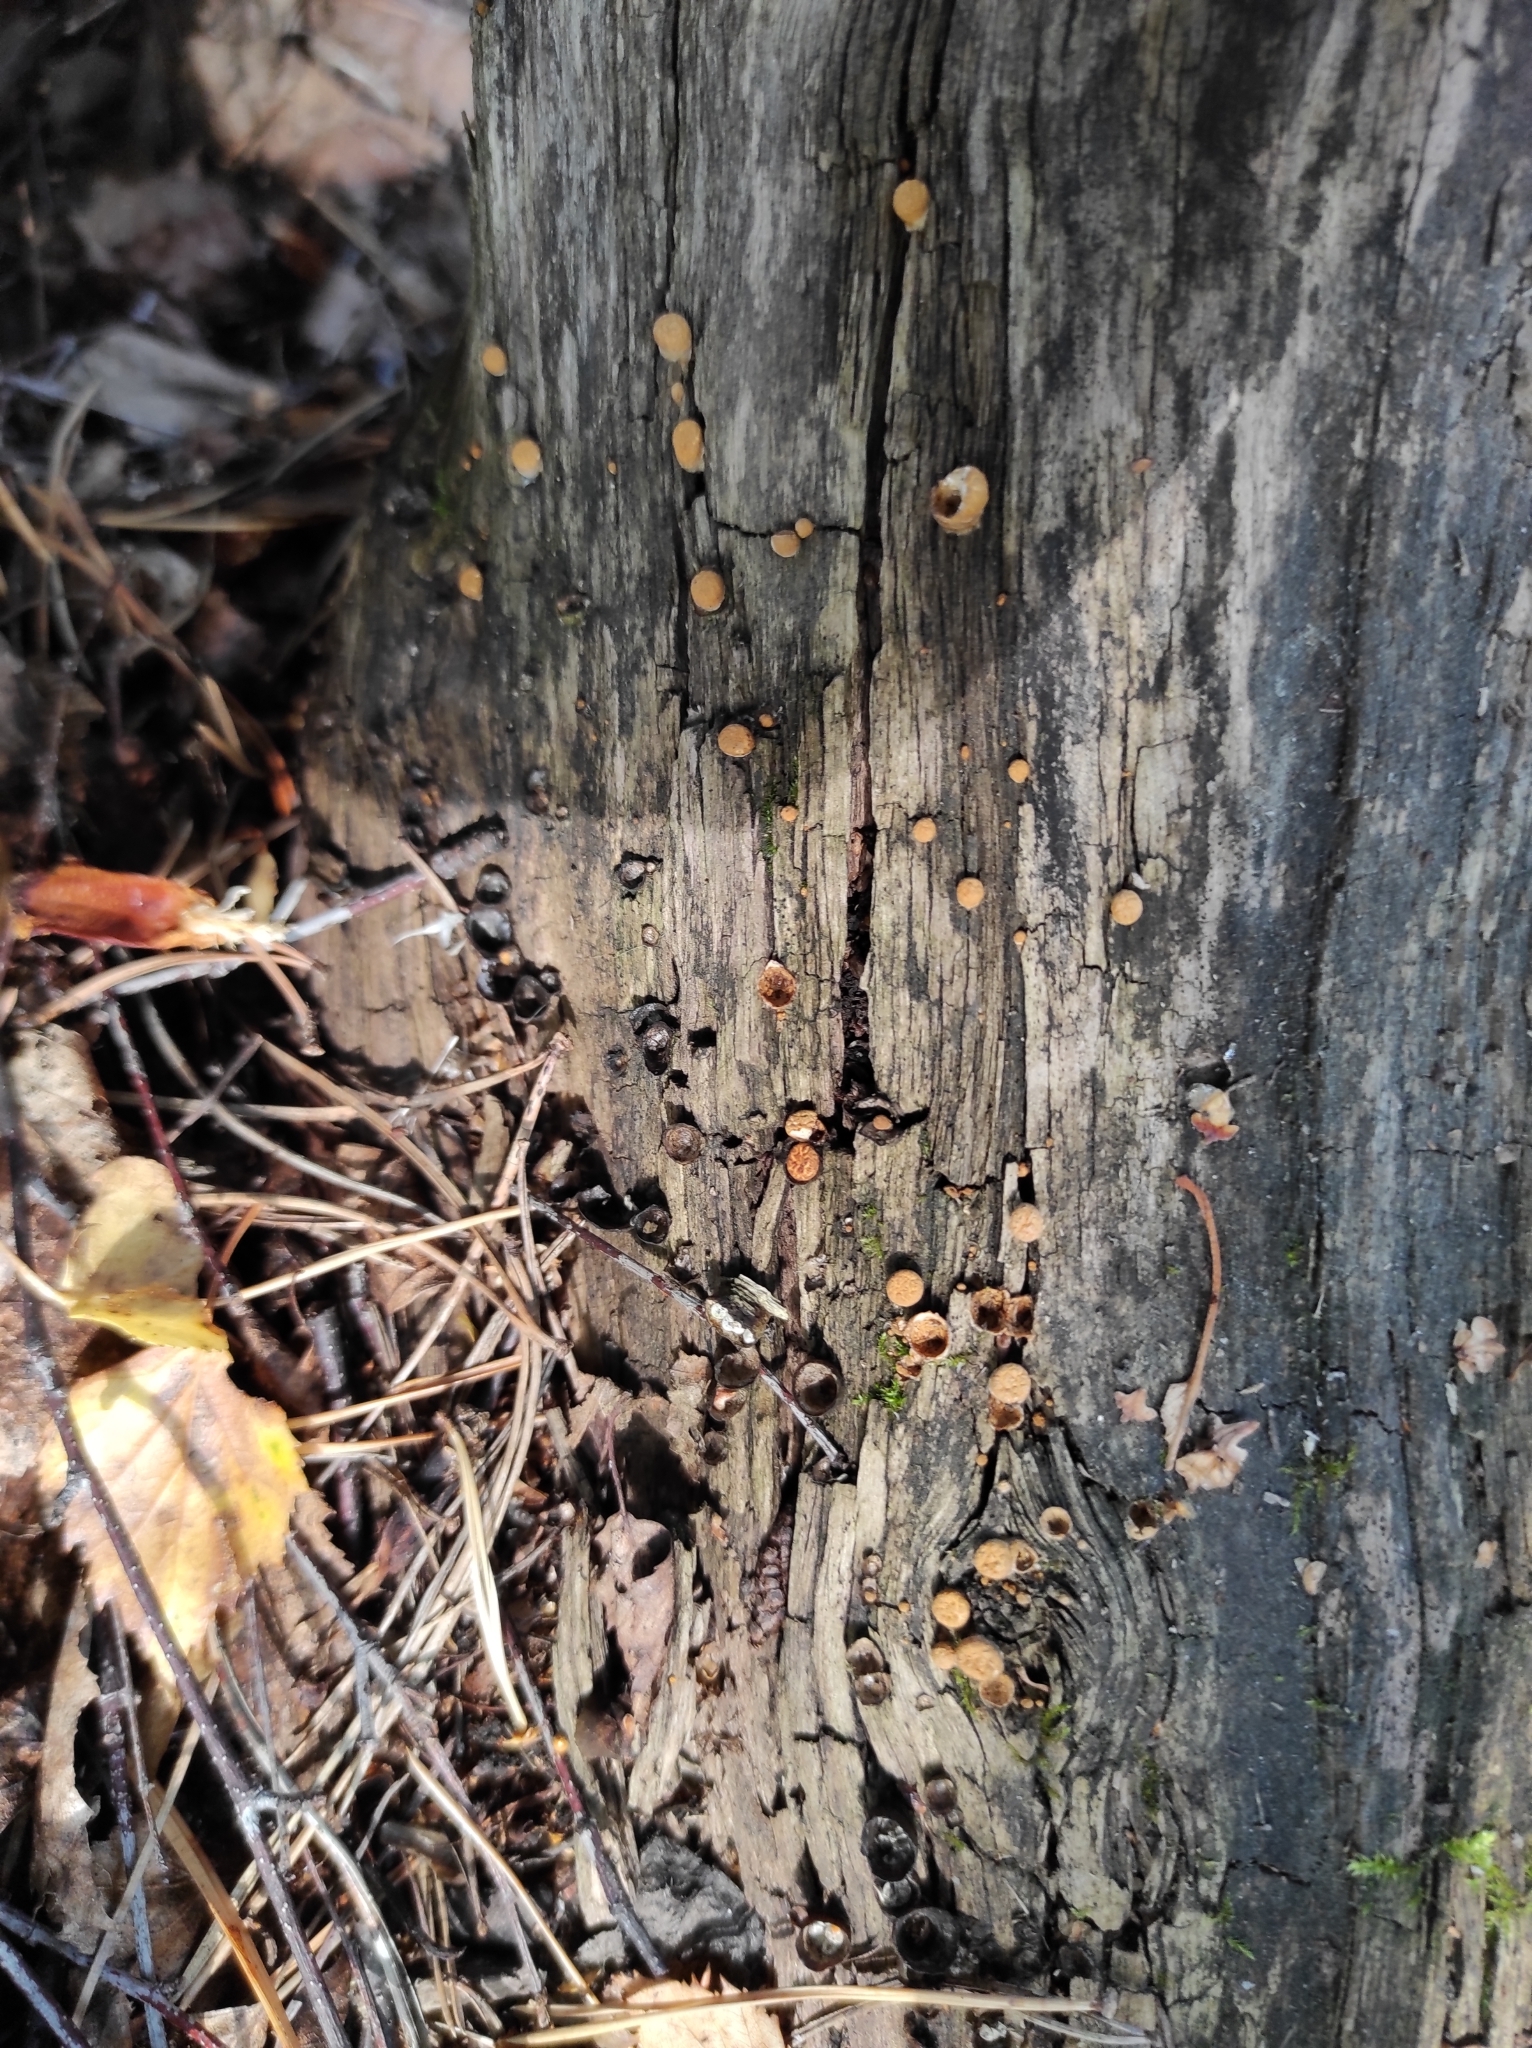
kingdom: Fungi
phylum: Basidiomycota
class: Agaricomycetes
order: Agaricales
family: Nidulariaceae
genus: Crucibulum
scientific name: Crucibulum laeve
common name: Common bird's nest
